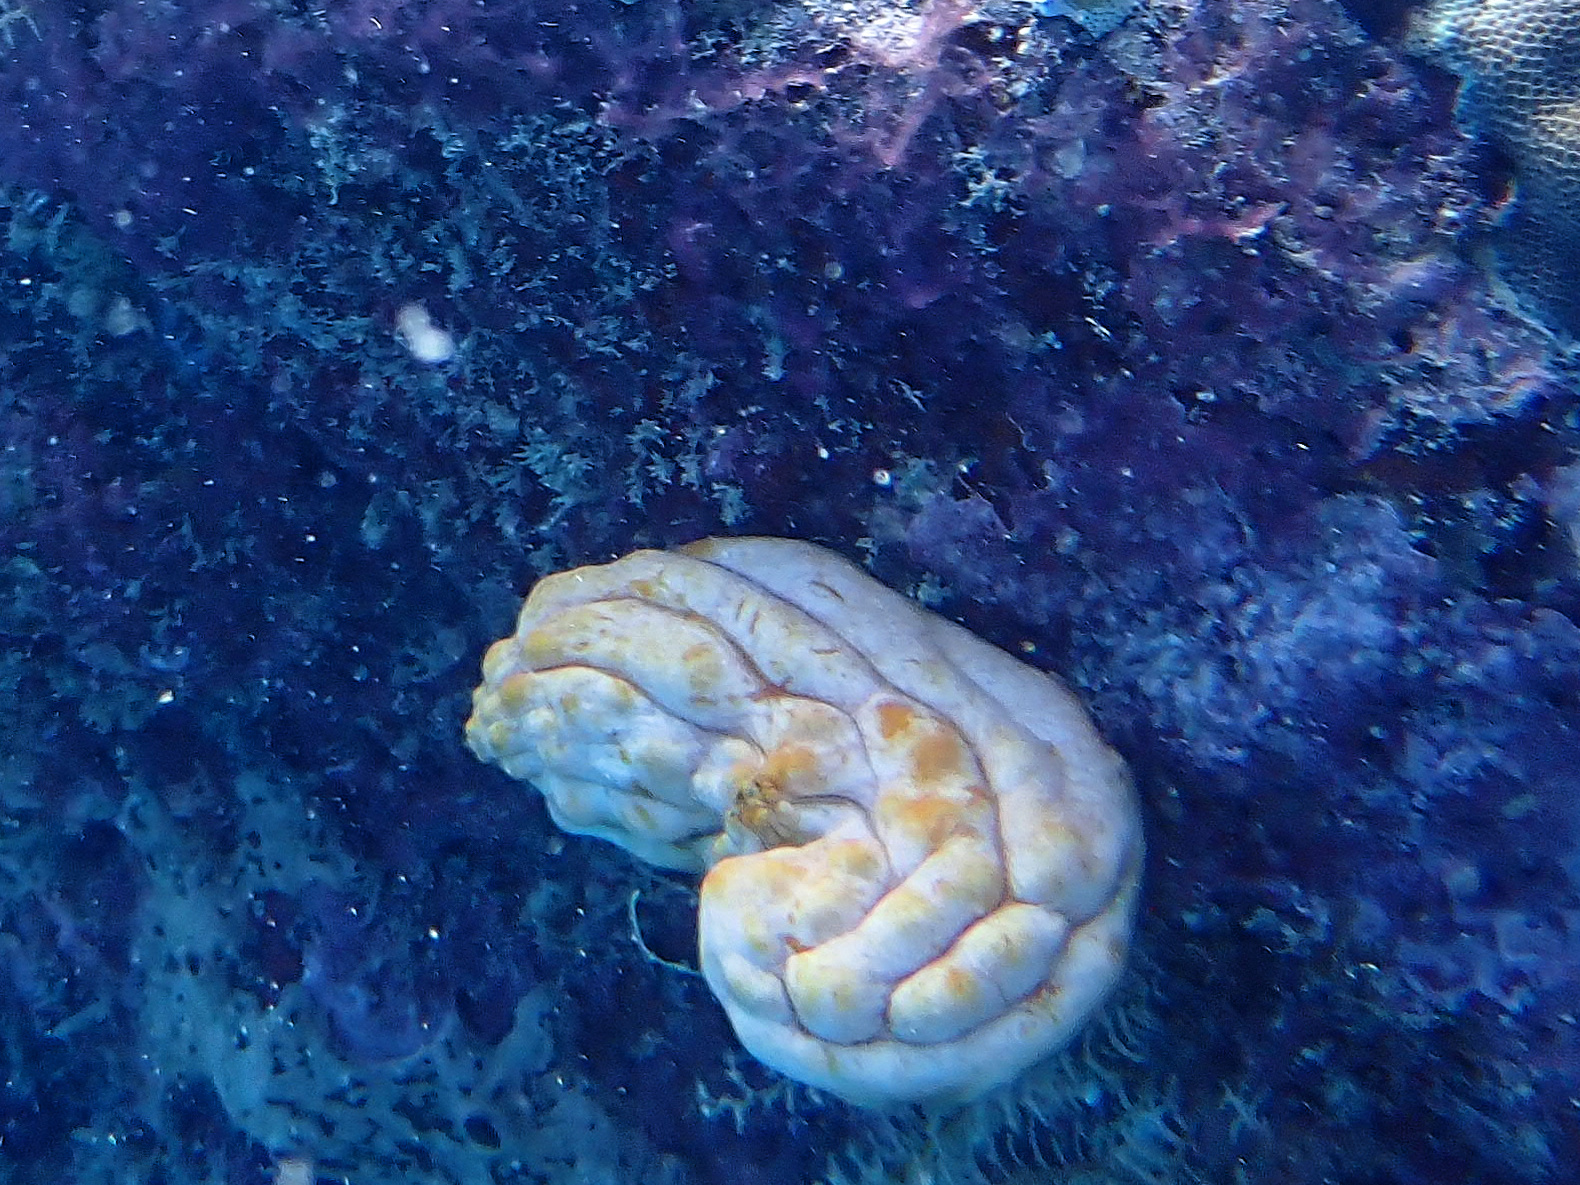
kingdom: Animalia
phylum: Chordata
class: Ascidiacea
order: Stolidobranchia
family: Styelidae
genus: Polycarpa
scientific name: Polycarpa aurata
